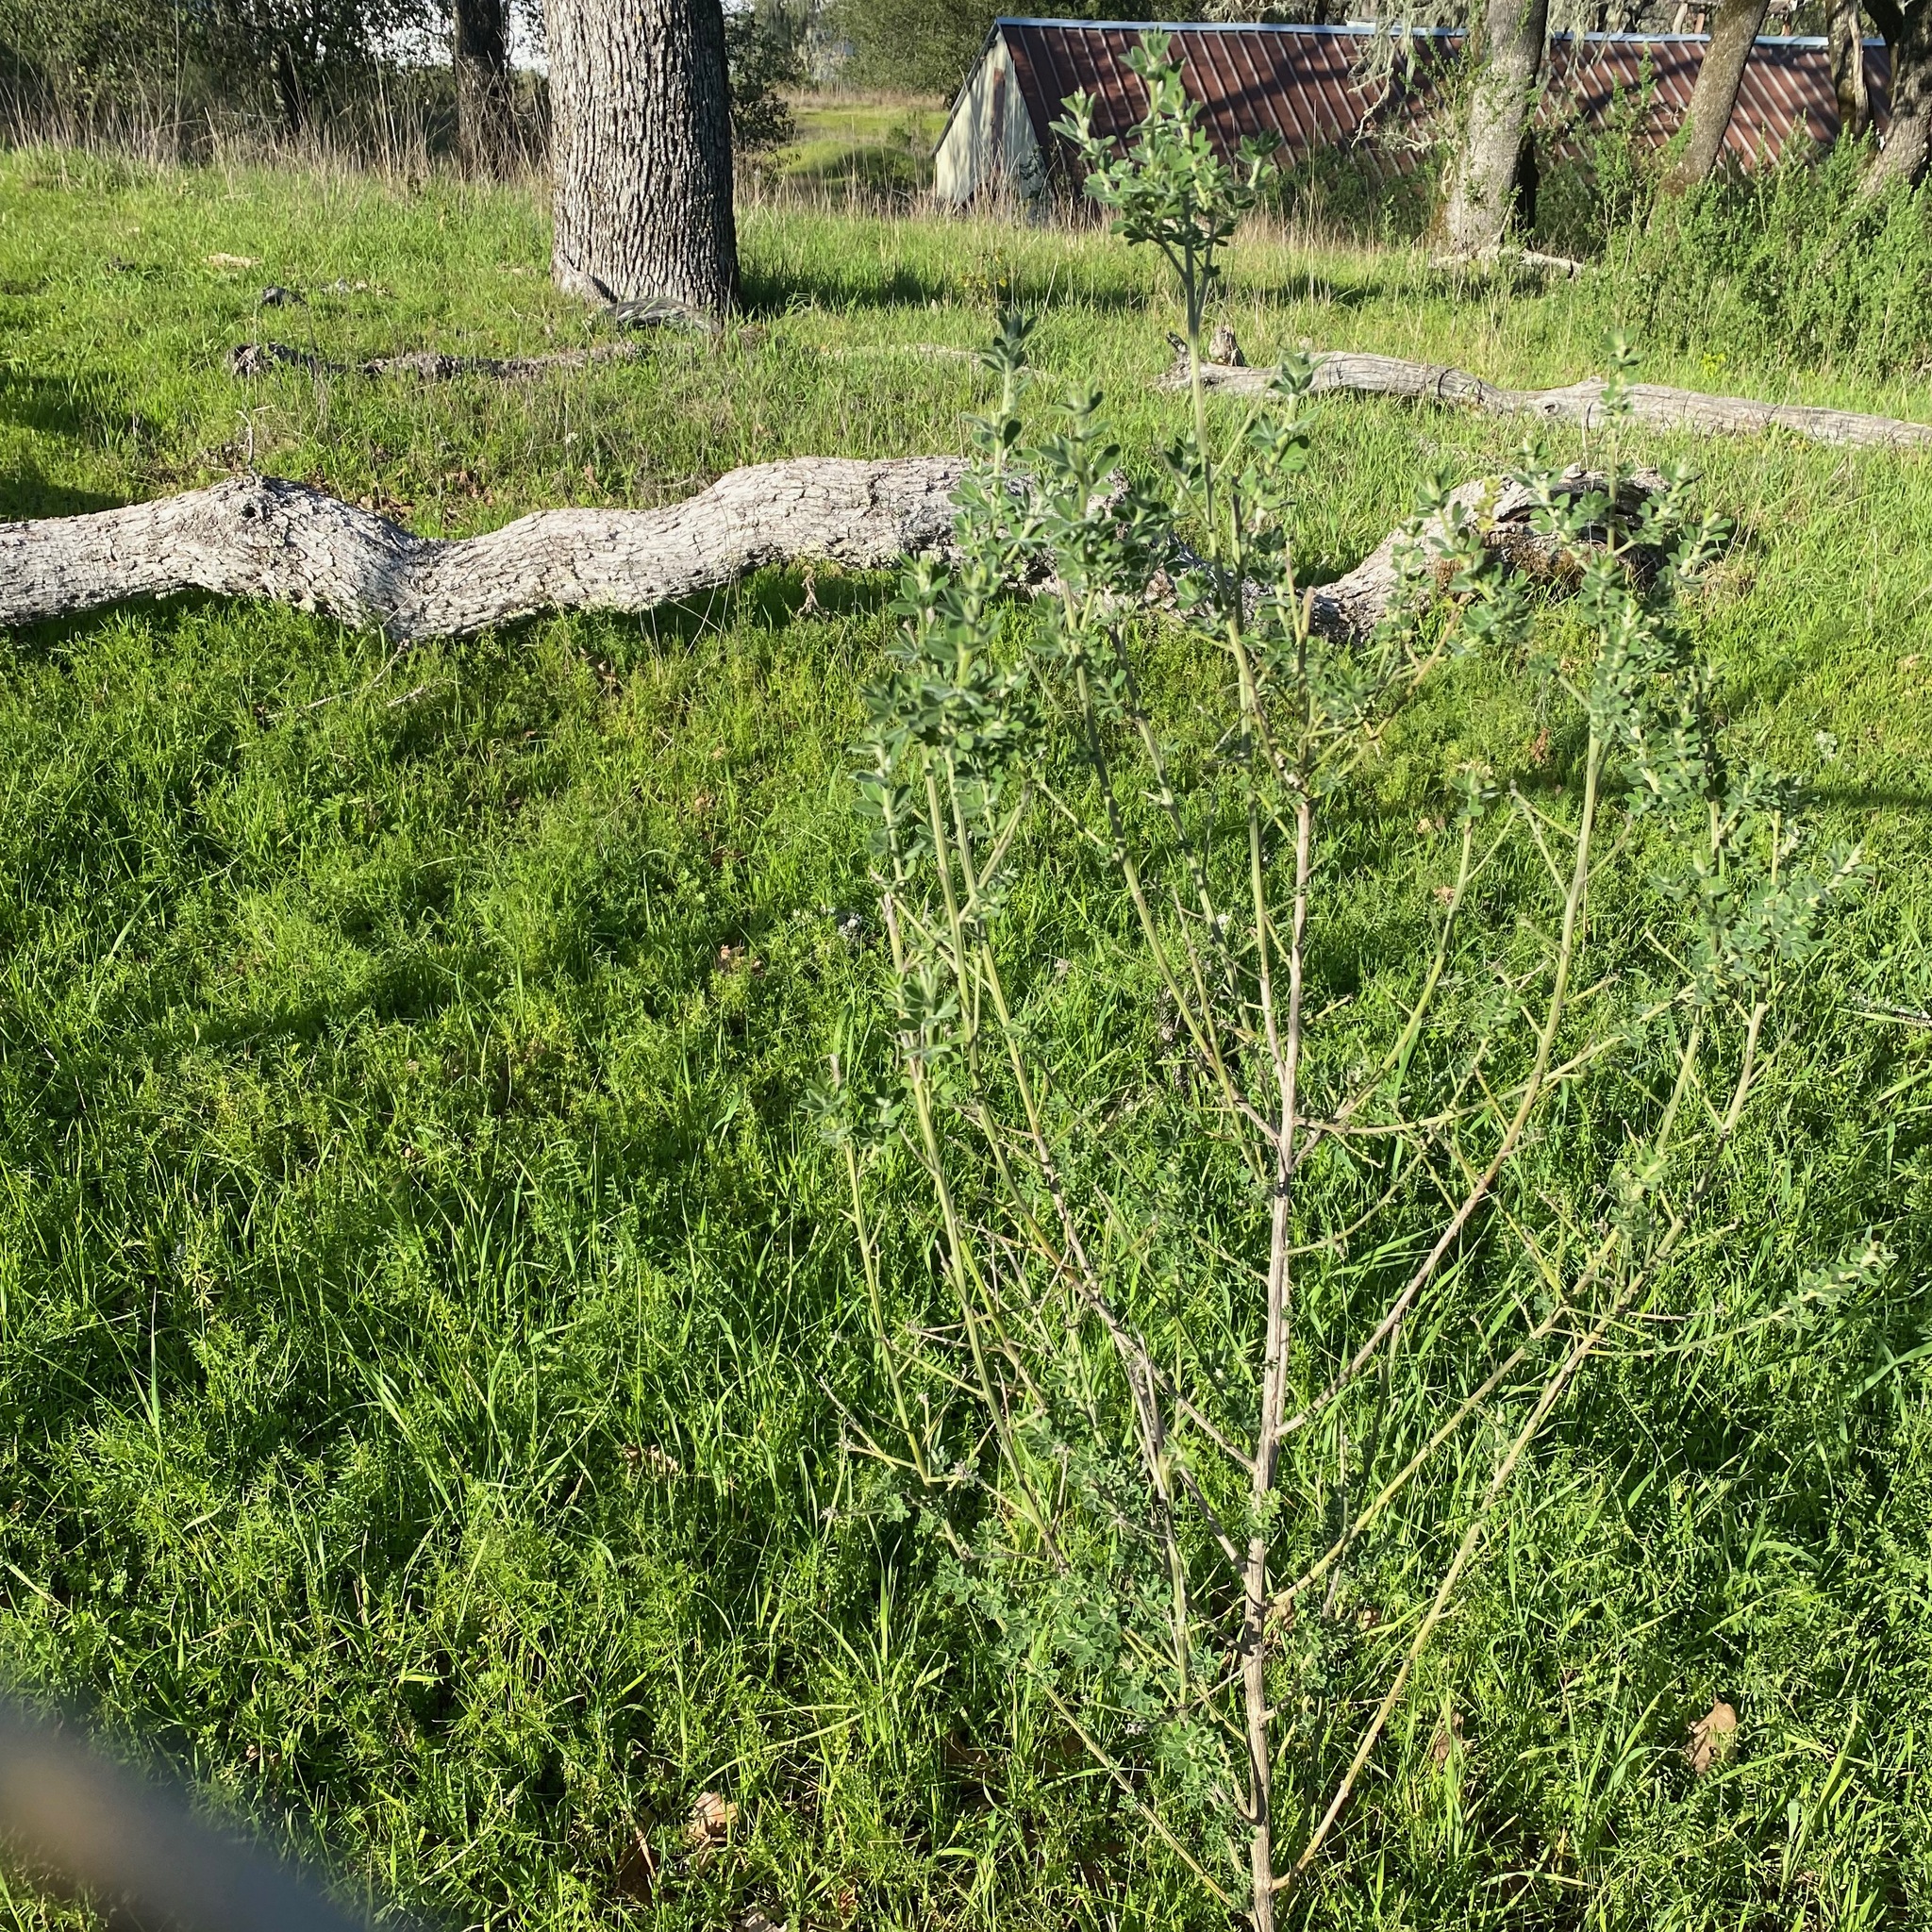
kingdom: Plantae
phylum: Tracheophyta
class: Magnoliopsida
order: Fabales
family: Fabaceae
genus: Genista
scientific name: Genista monspessulana
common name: Montpellier broom
